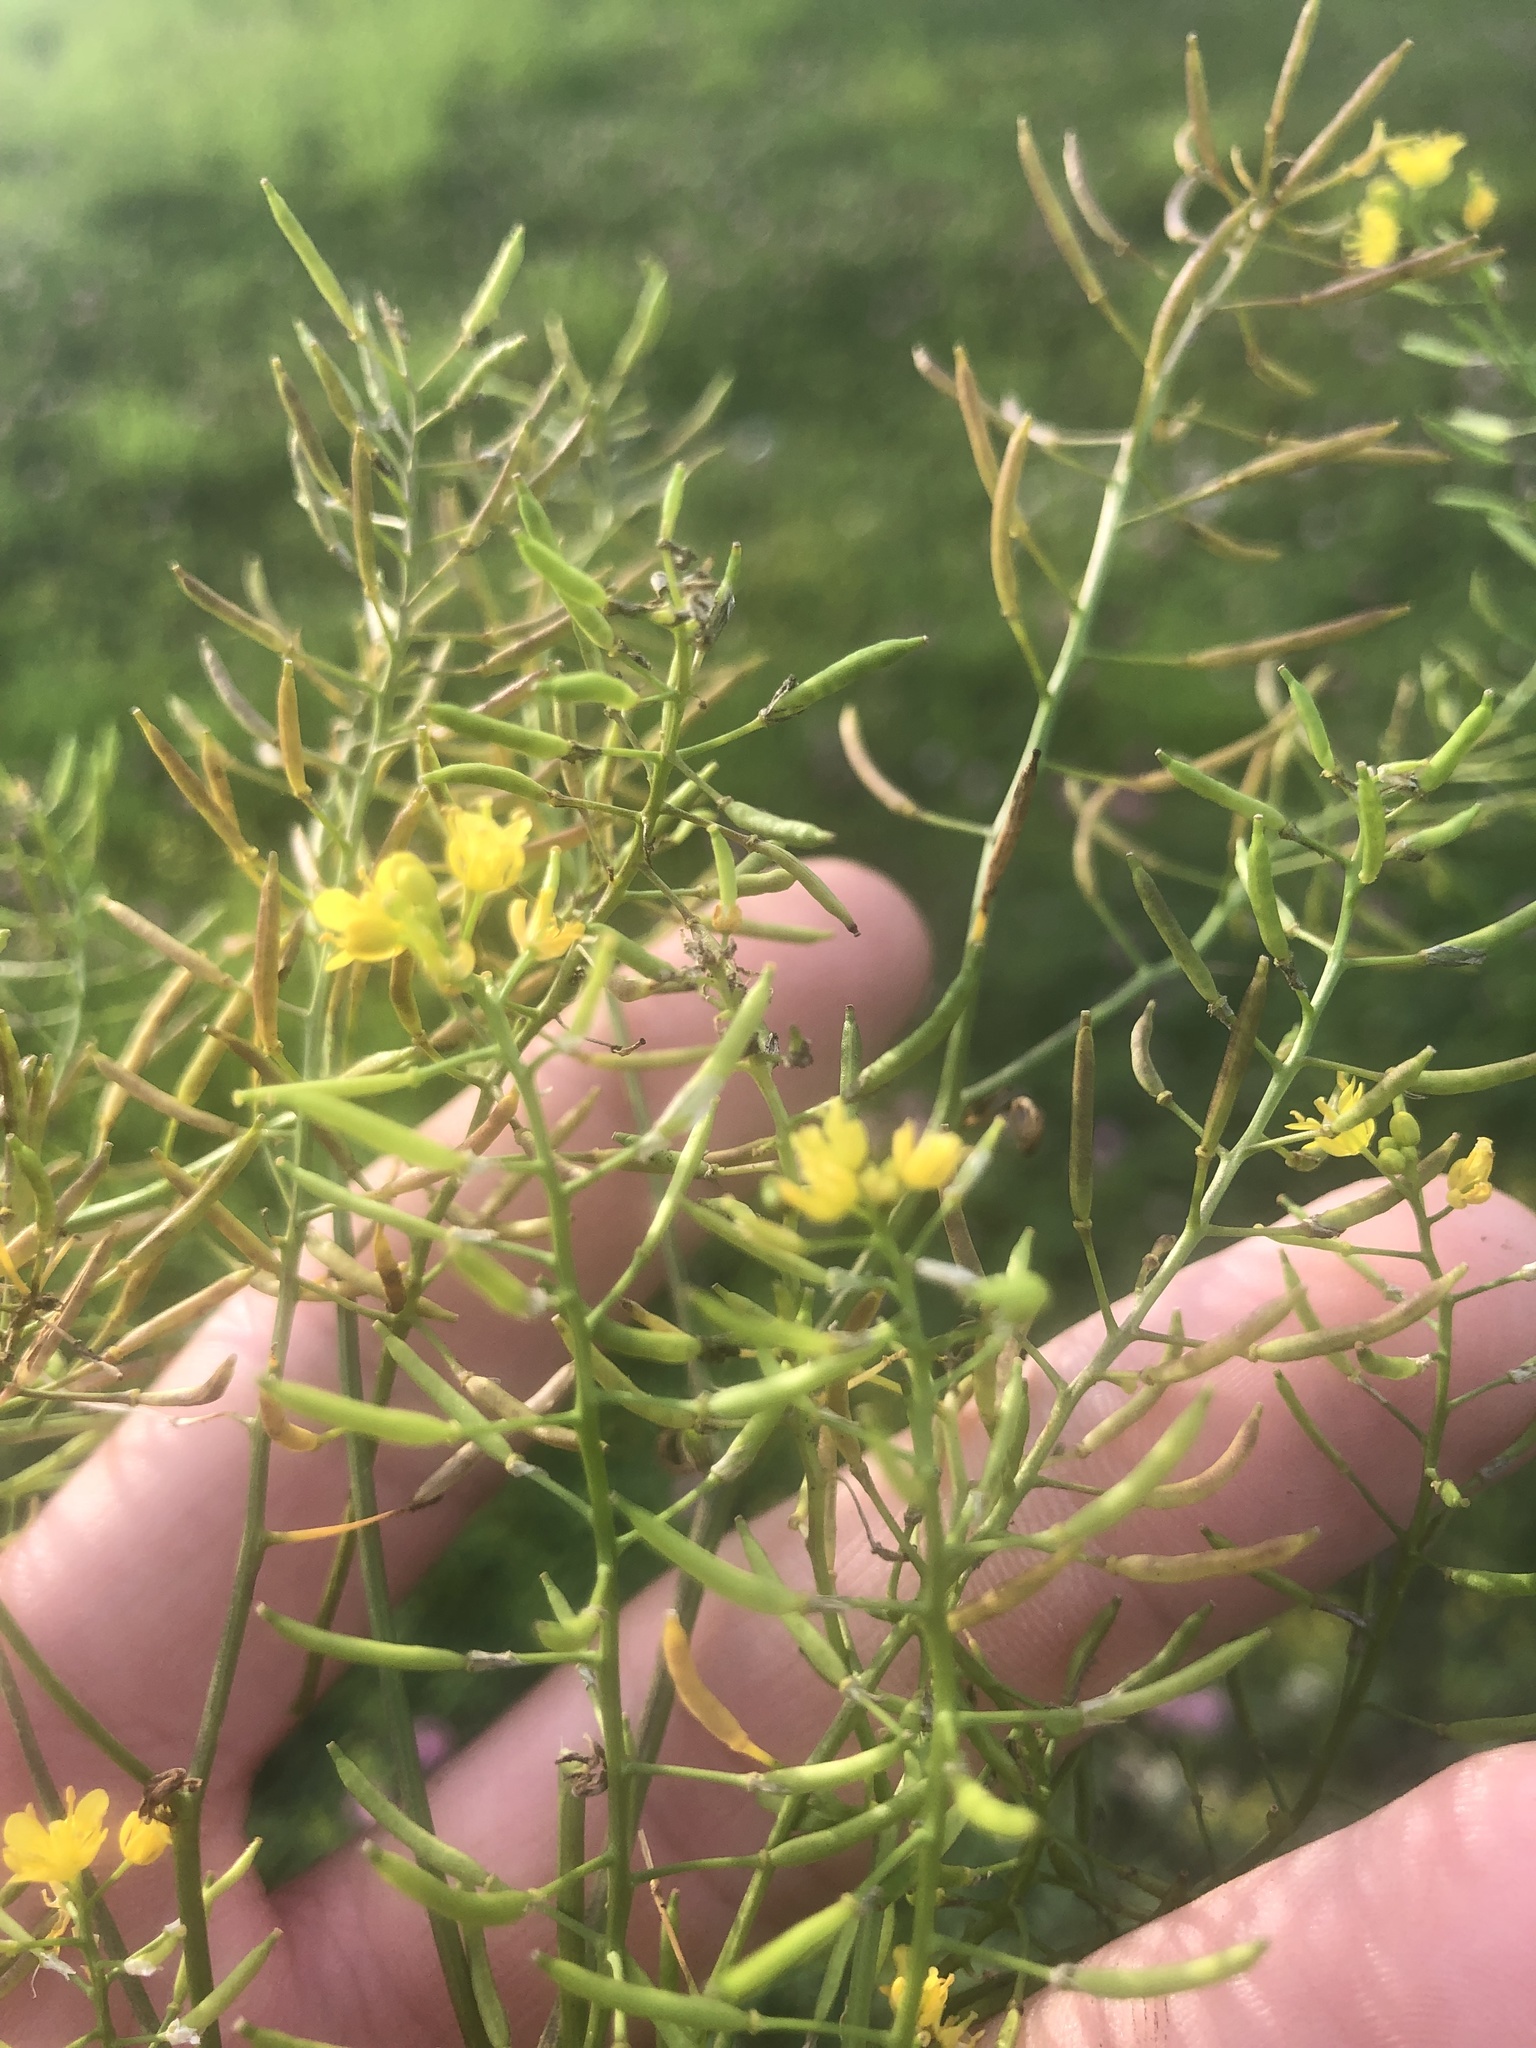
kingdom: Plantae
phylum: Tracheophyta
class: Magnoliopsida
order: Brassicales
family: Brassicaceae
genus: Rorippa
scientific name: Rorippa sylvestris
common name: Creeping yellowcress
